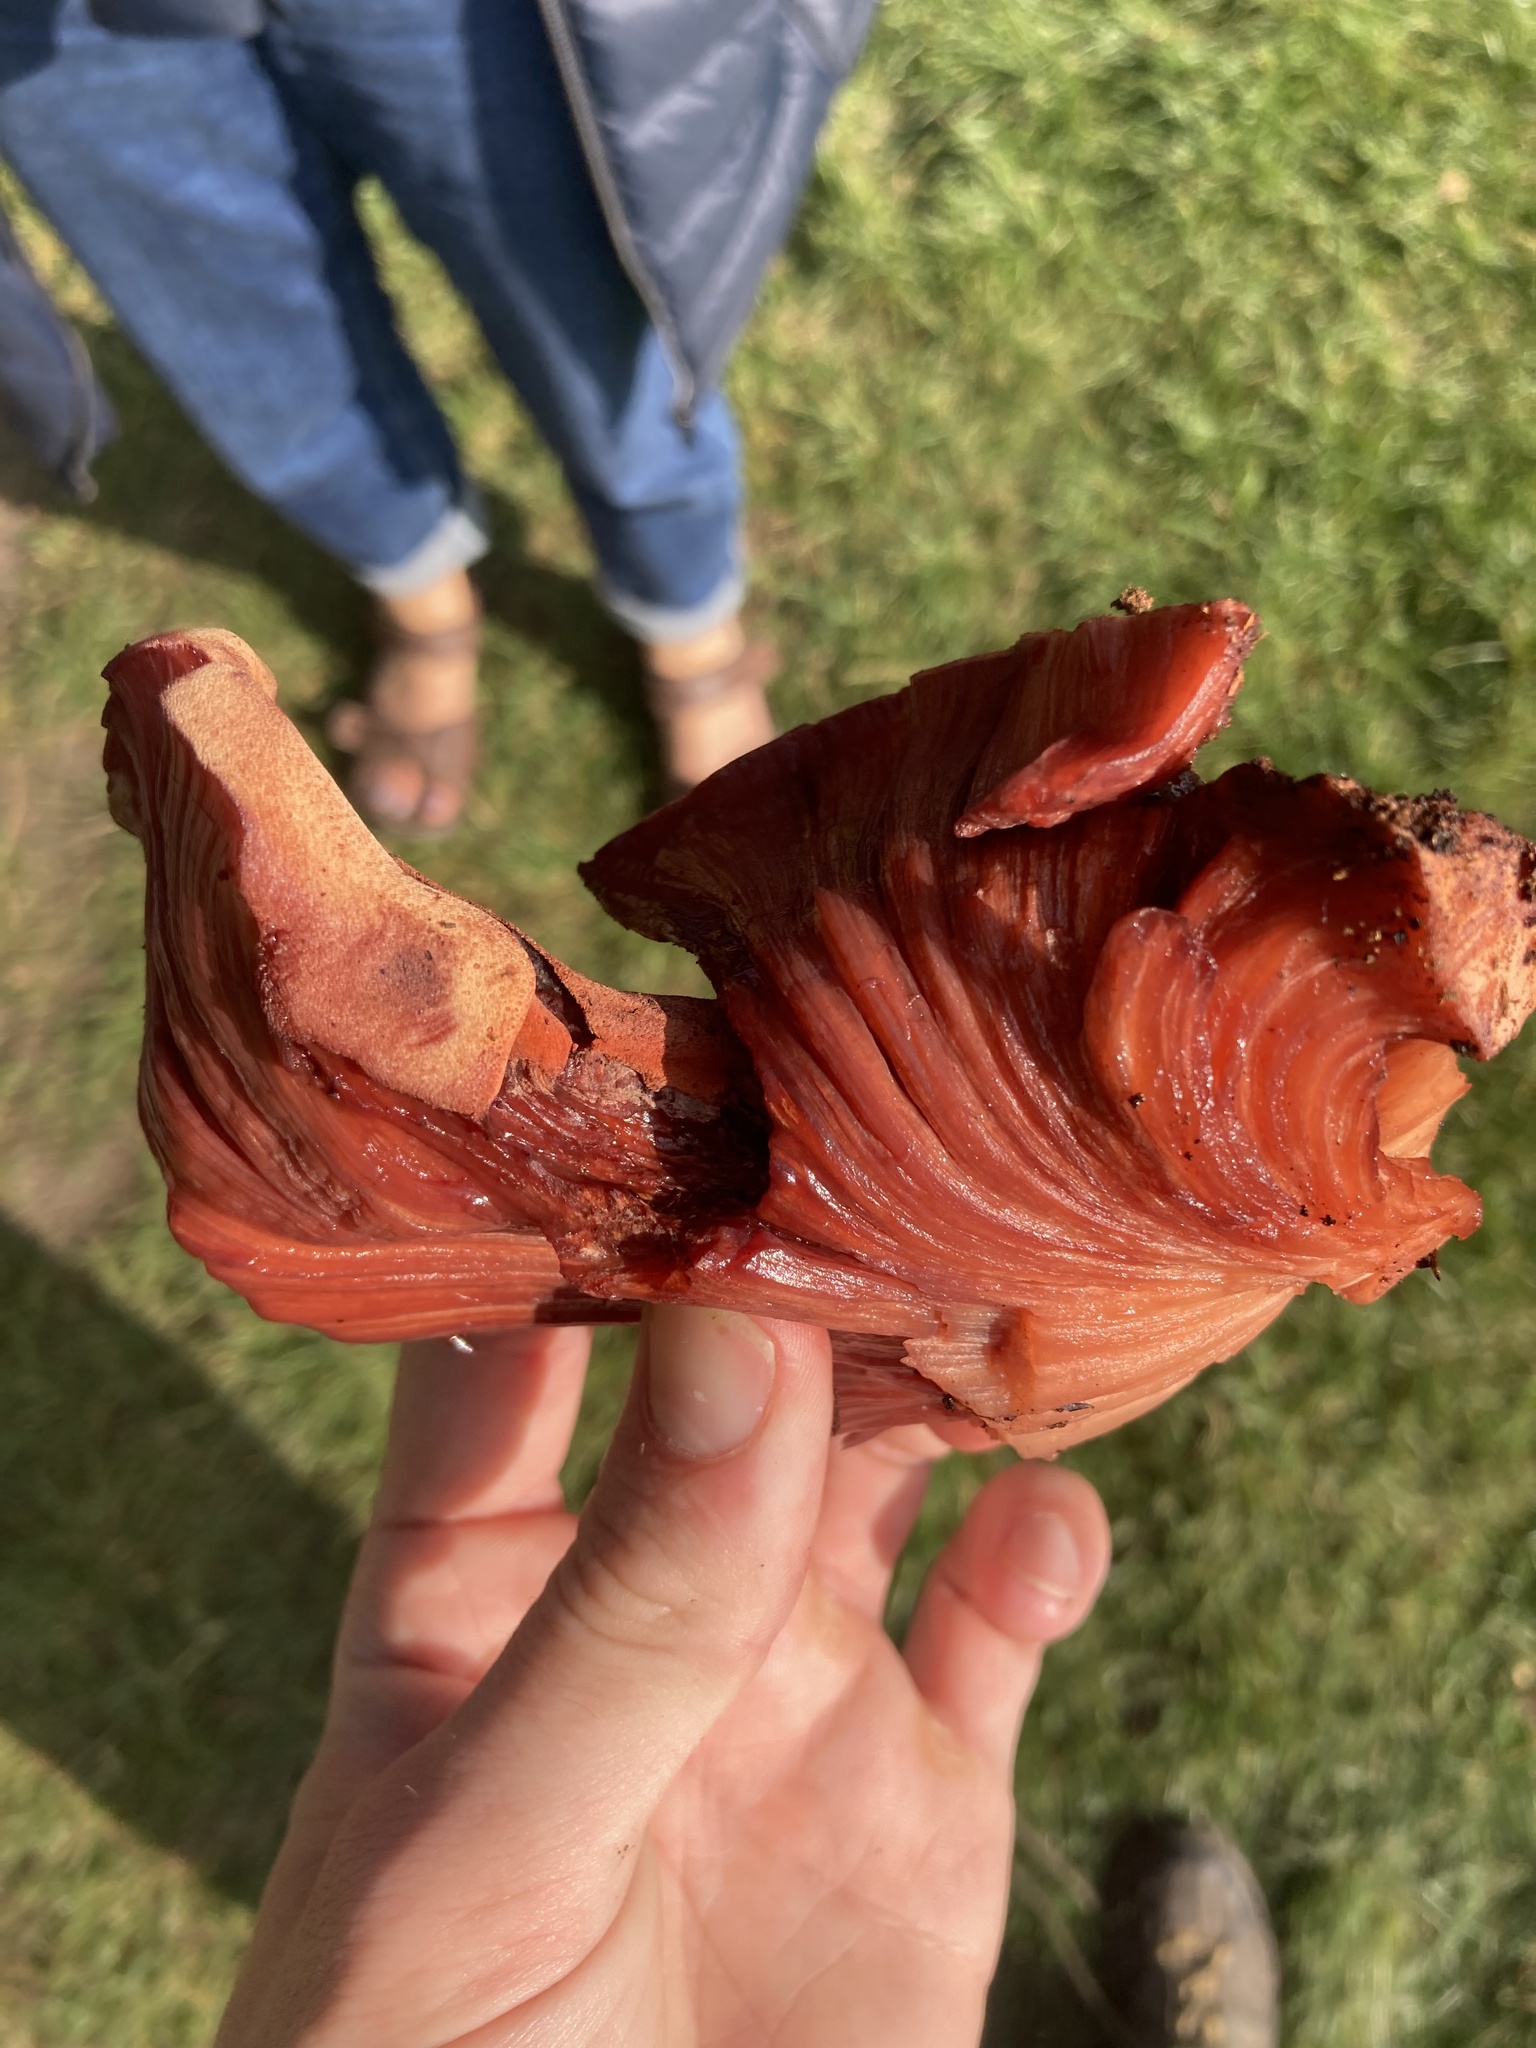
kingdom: Fungi
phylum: Basidiomycota
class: Agaricomycetes
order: Agaricales
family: Fistulinaceae
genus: Fistulina
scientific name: Fistulina hepatica
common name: Beef-steak fungus
